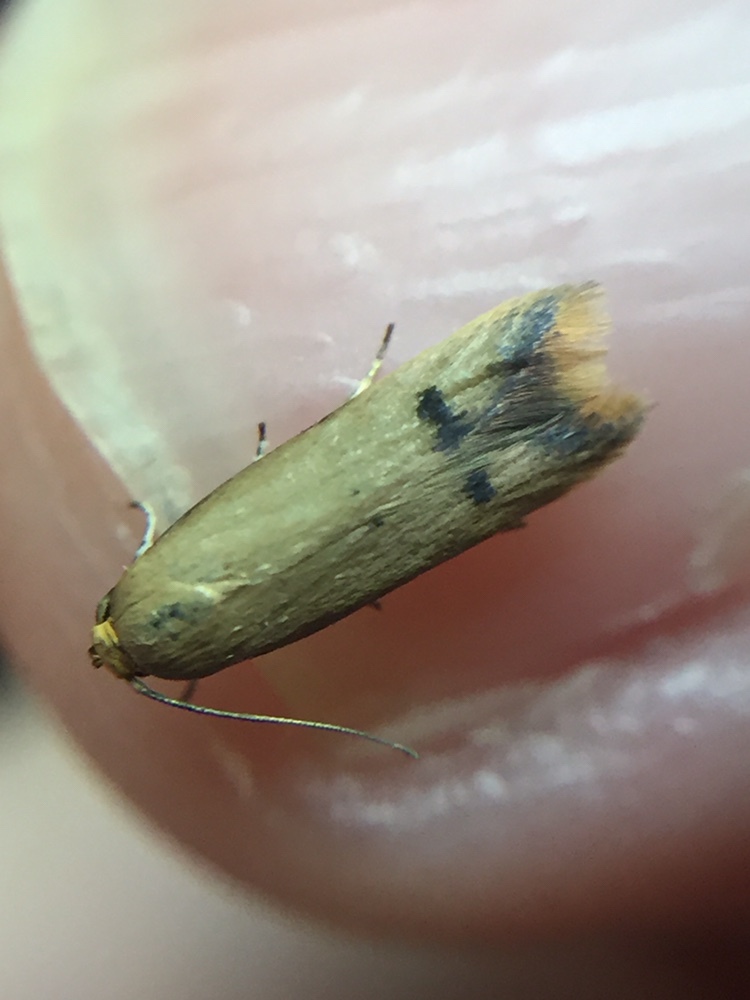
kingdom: Animalia
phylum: Arthropoda
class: Insecta
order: Lepidoptera
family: Oecophoridae
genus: Tachystola
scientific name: Tachystola hemisema
